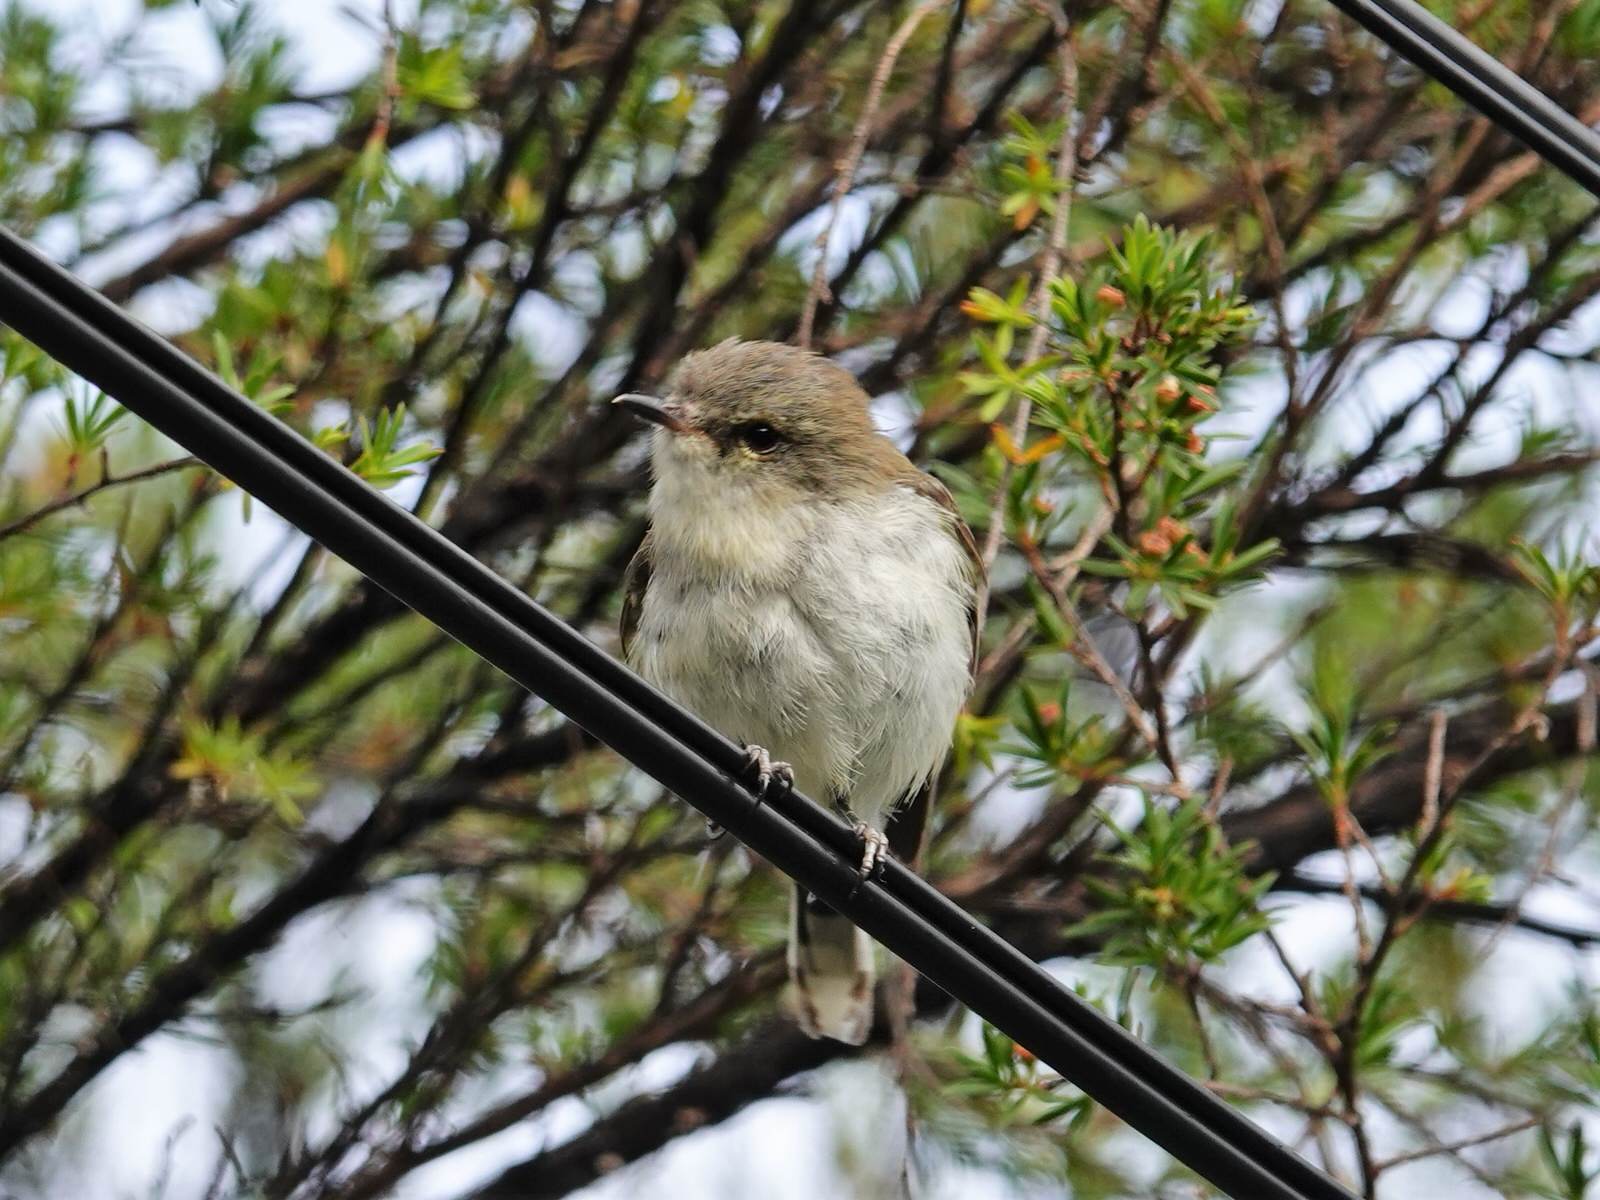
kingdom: Animalia
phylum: Chordata
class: Aves
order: Passeriformes
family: Acanthizidae
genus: Gerygone
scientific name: Gerygone igata
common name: Grey gerygone
